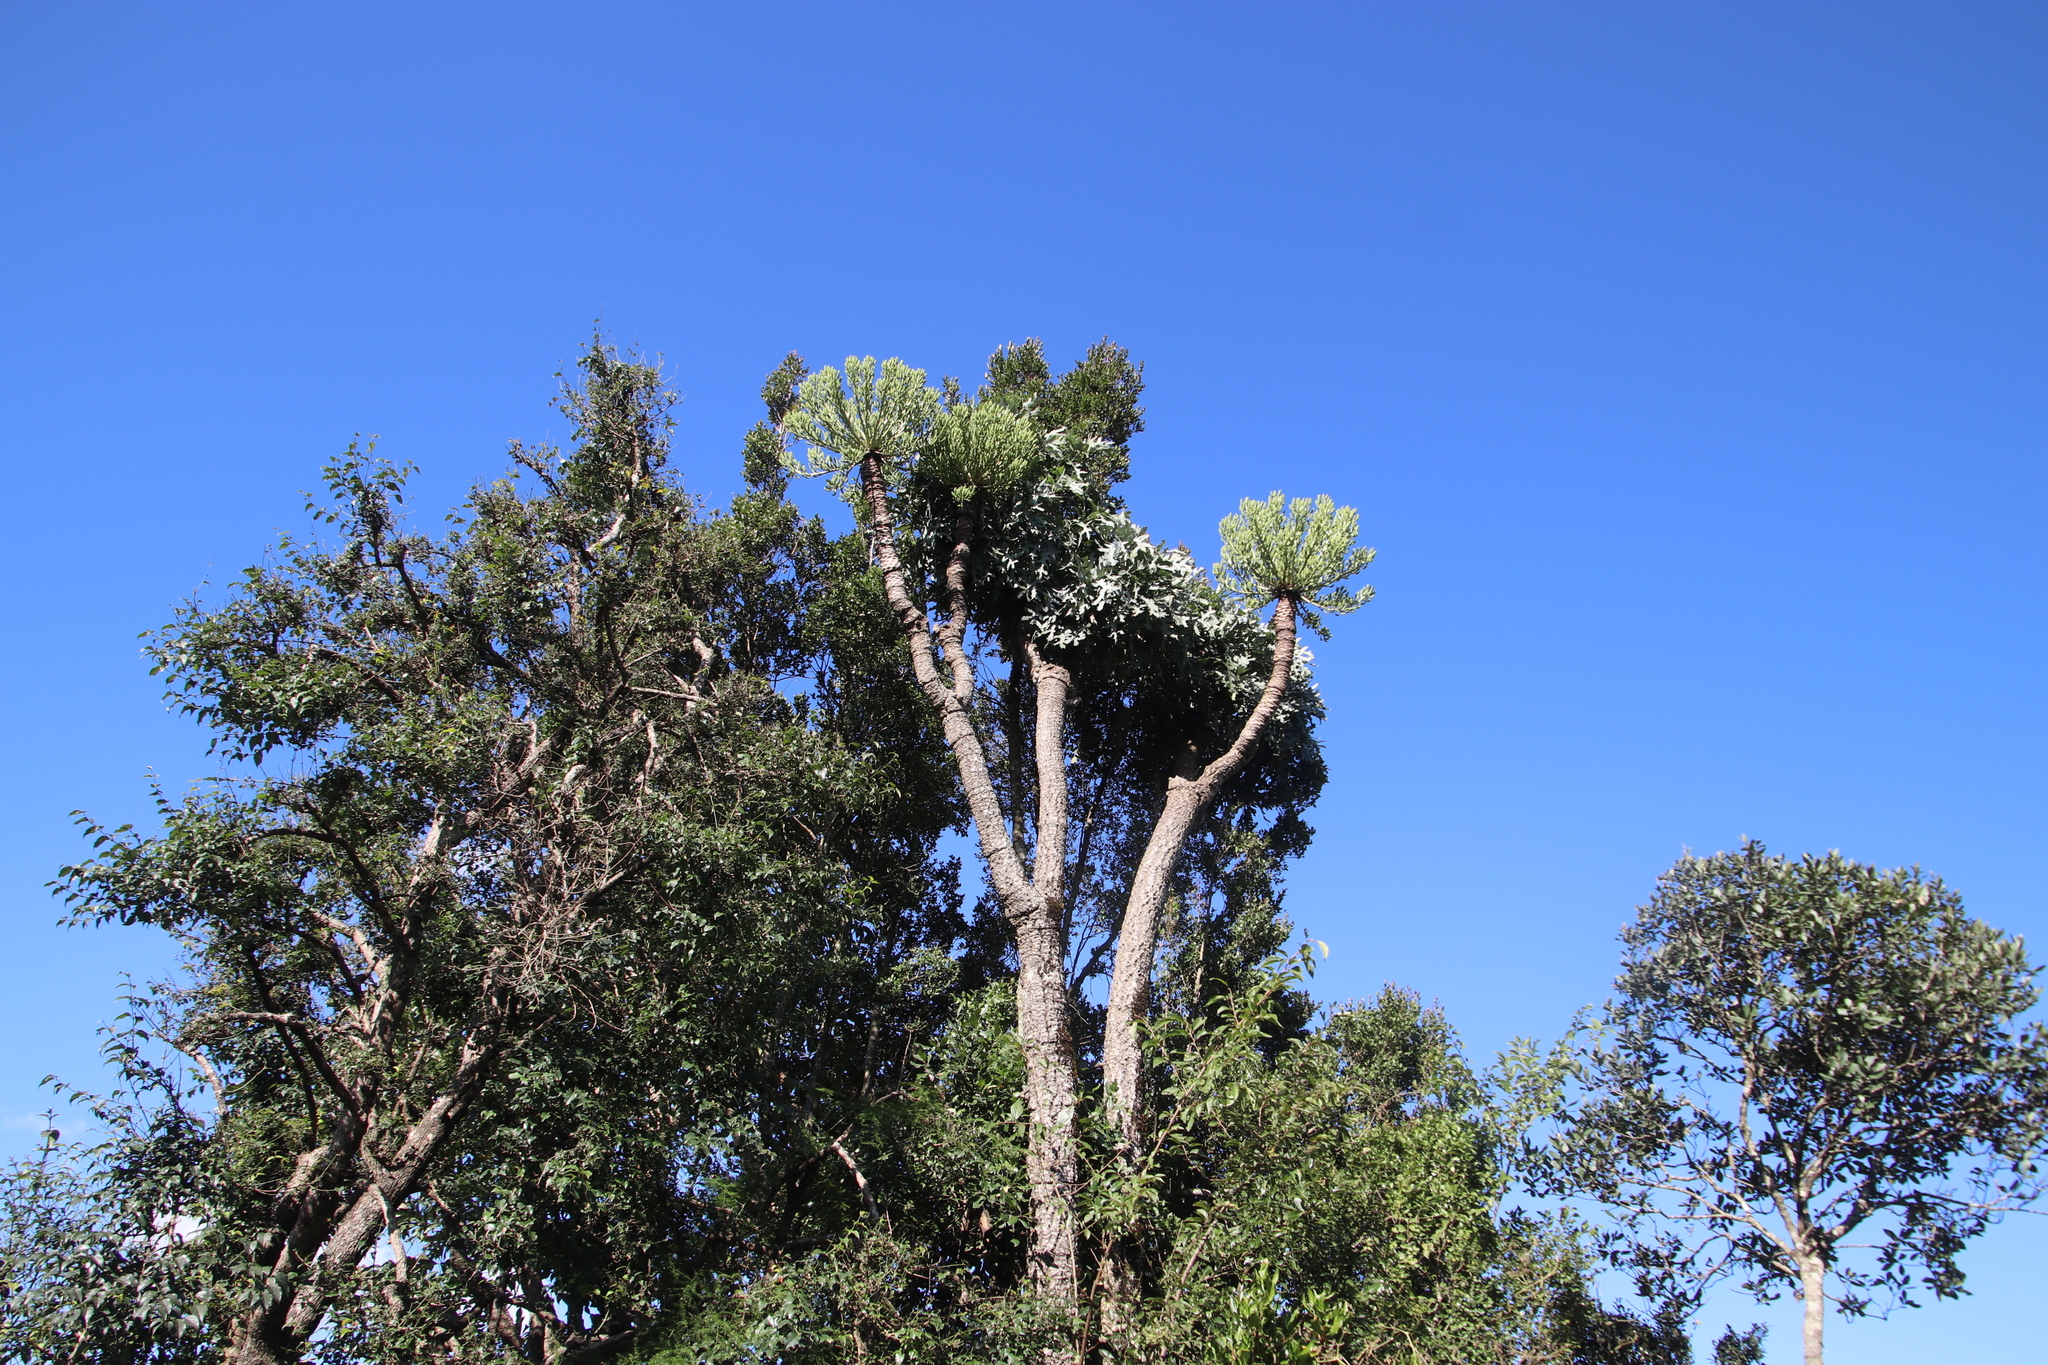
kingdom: Plantae
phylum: Tracheophyta
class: Magnoliopsida
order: Apiales
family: Araliaceae
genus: Cussonia
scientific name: Cussonia paniculata
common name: Cabbagetree
